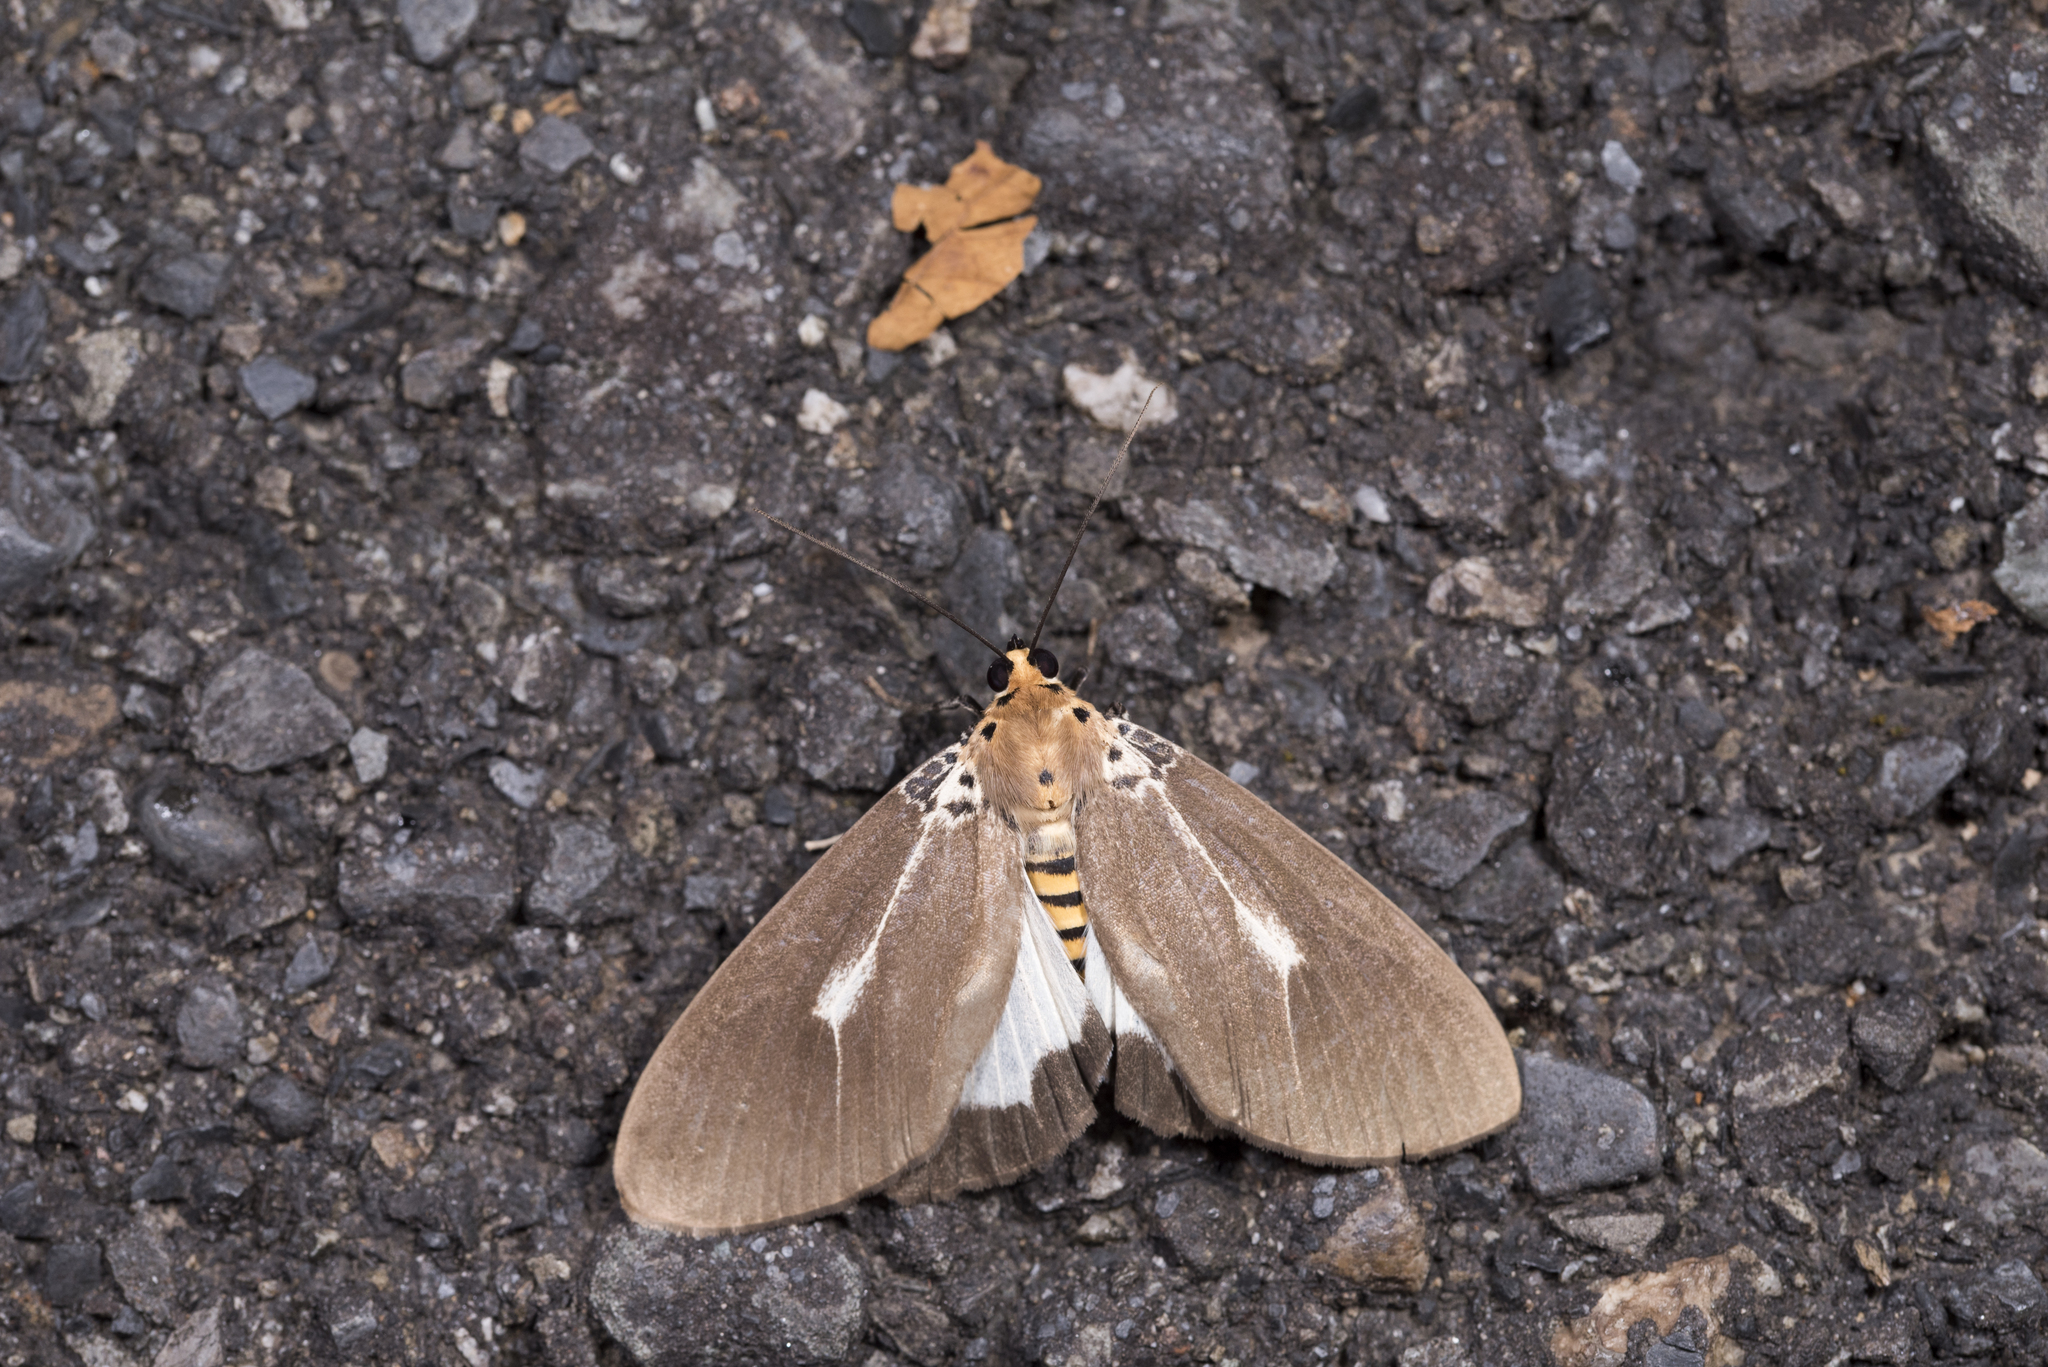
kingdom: Animalia
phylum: Arthropoda
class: Insecta
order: Lepidoptera
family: Erebidae
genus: Asota
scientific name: Asota heliconia
